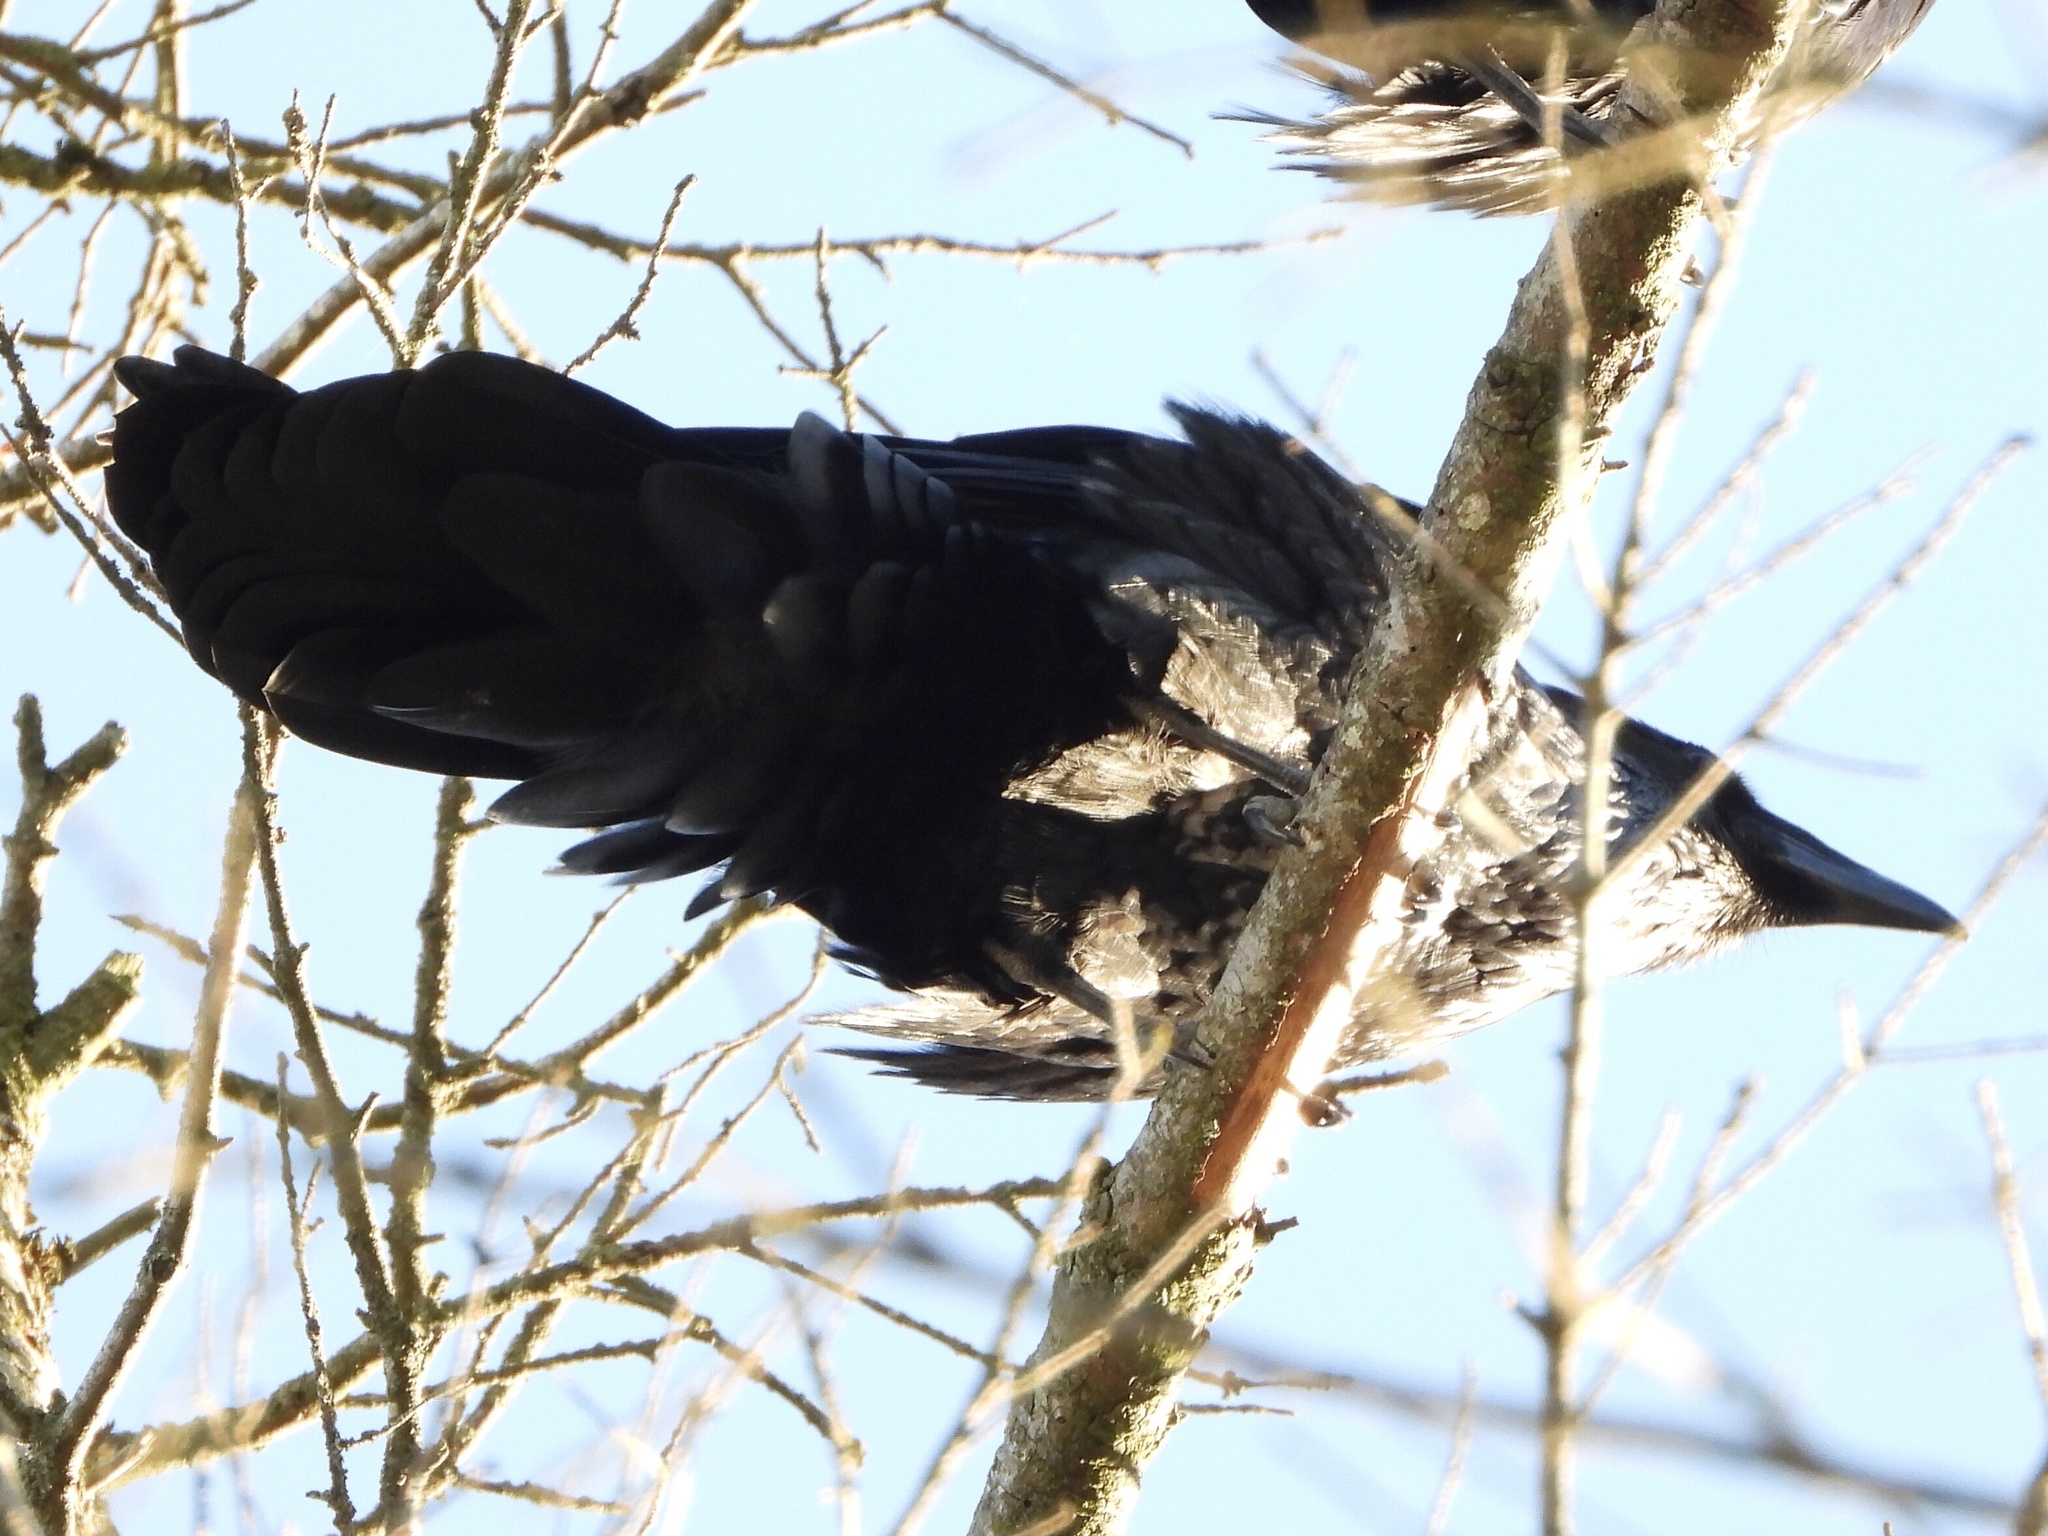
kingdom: Animalia
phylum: Chordata
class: Aves
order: Passeriformes
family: Corvidae
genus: Corvus
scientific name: Corvus corax
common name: Common raven
